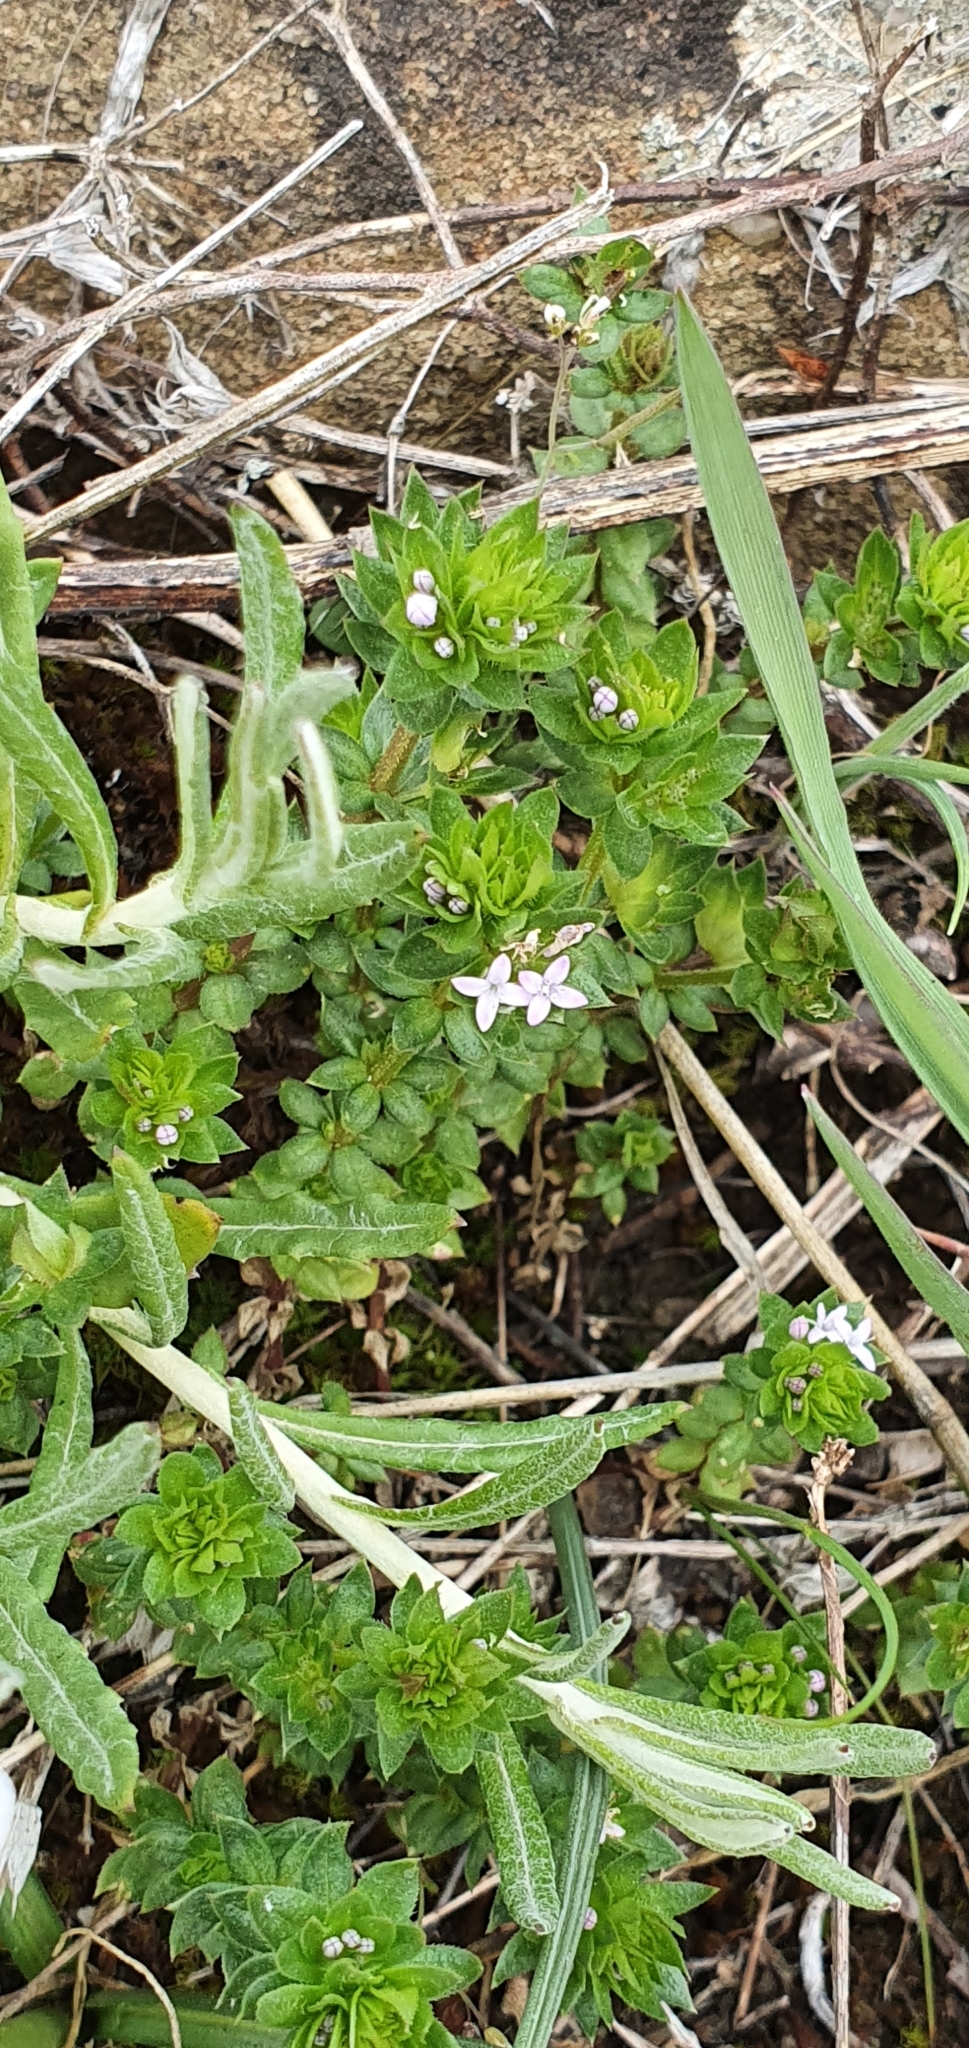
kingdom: Plantae
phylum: Tracheophyta
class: Magnoliopsida
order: Gentianales
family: Rubiaceae
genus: Sherardia
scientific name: Sherardia arvensis
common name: Field madder
